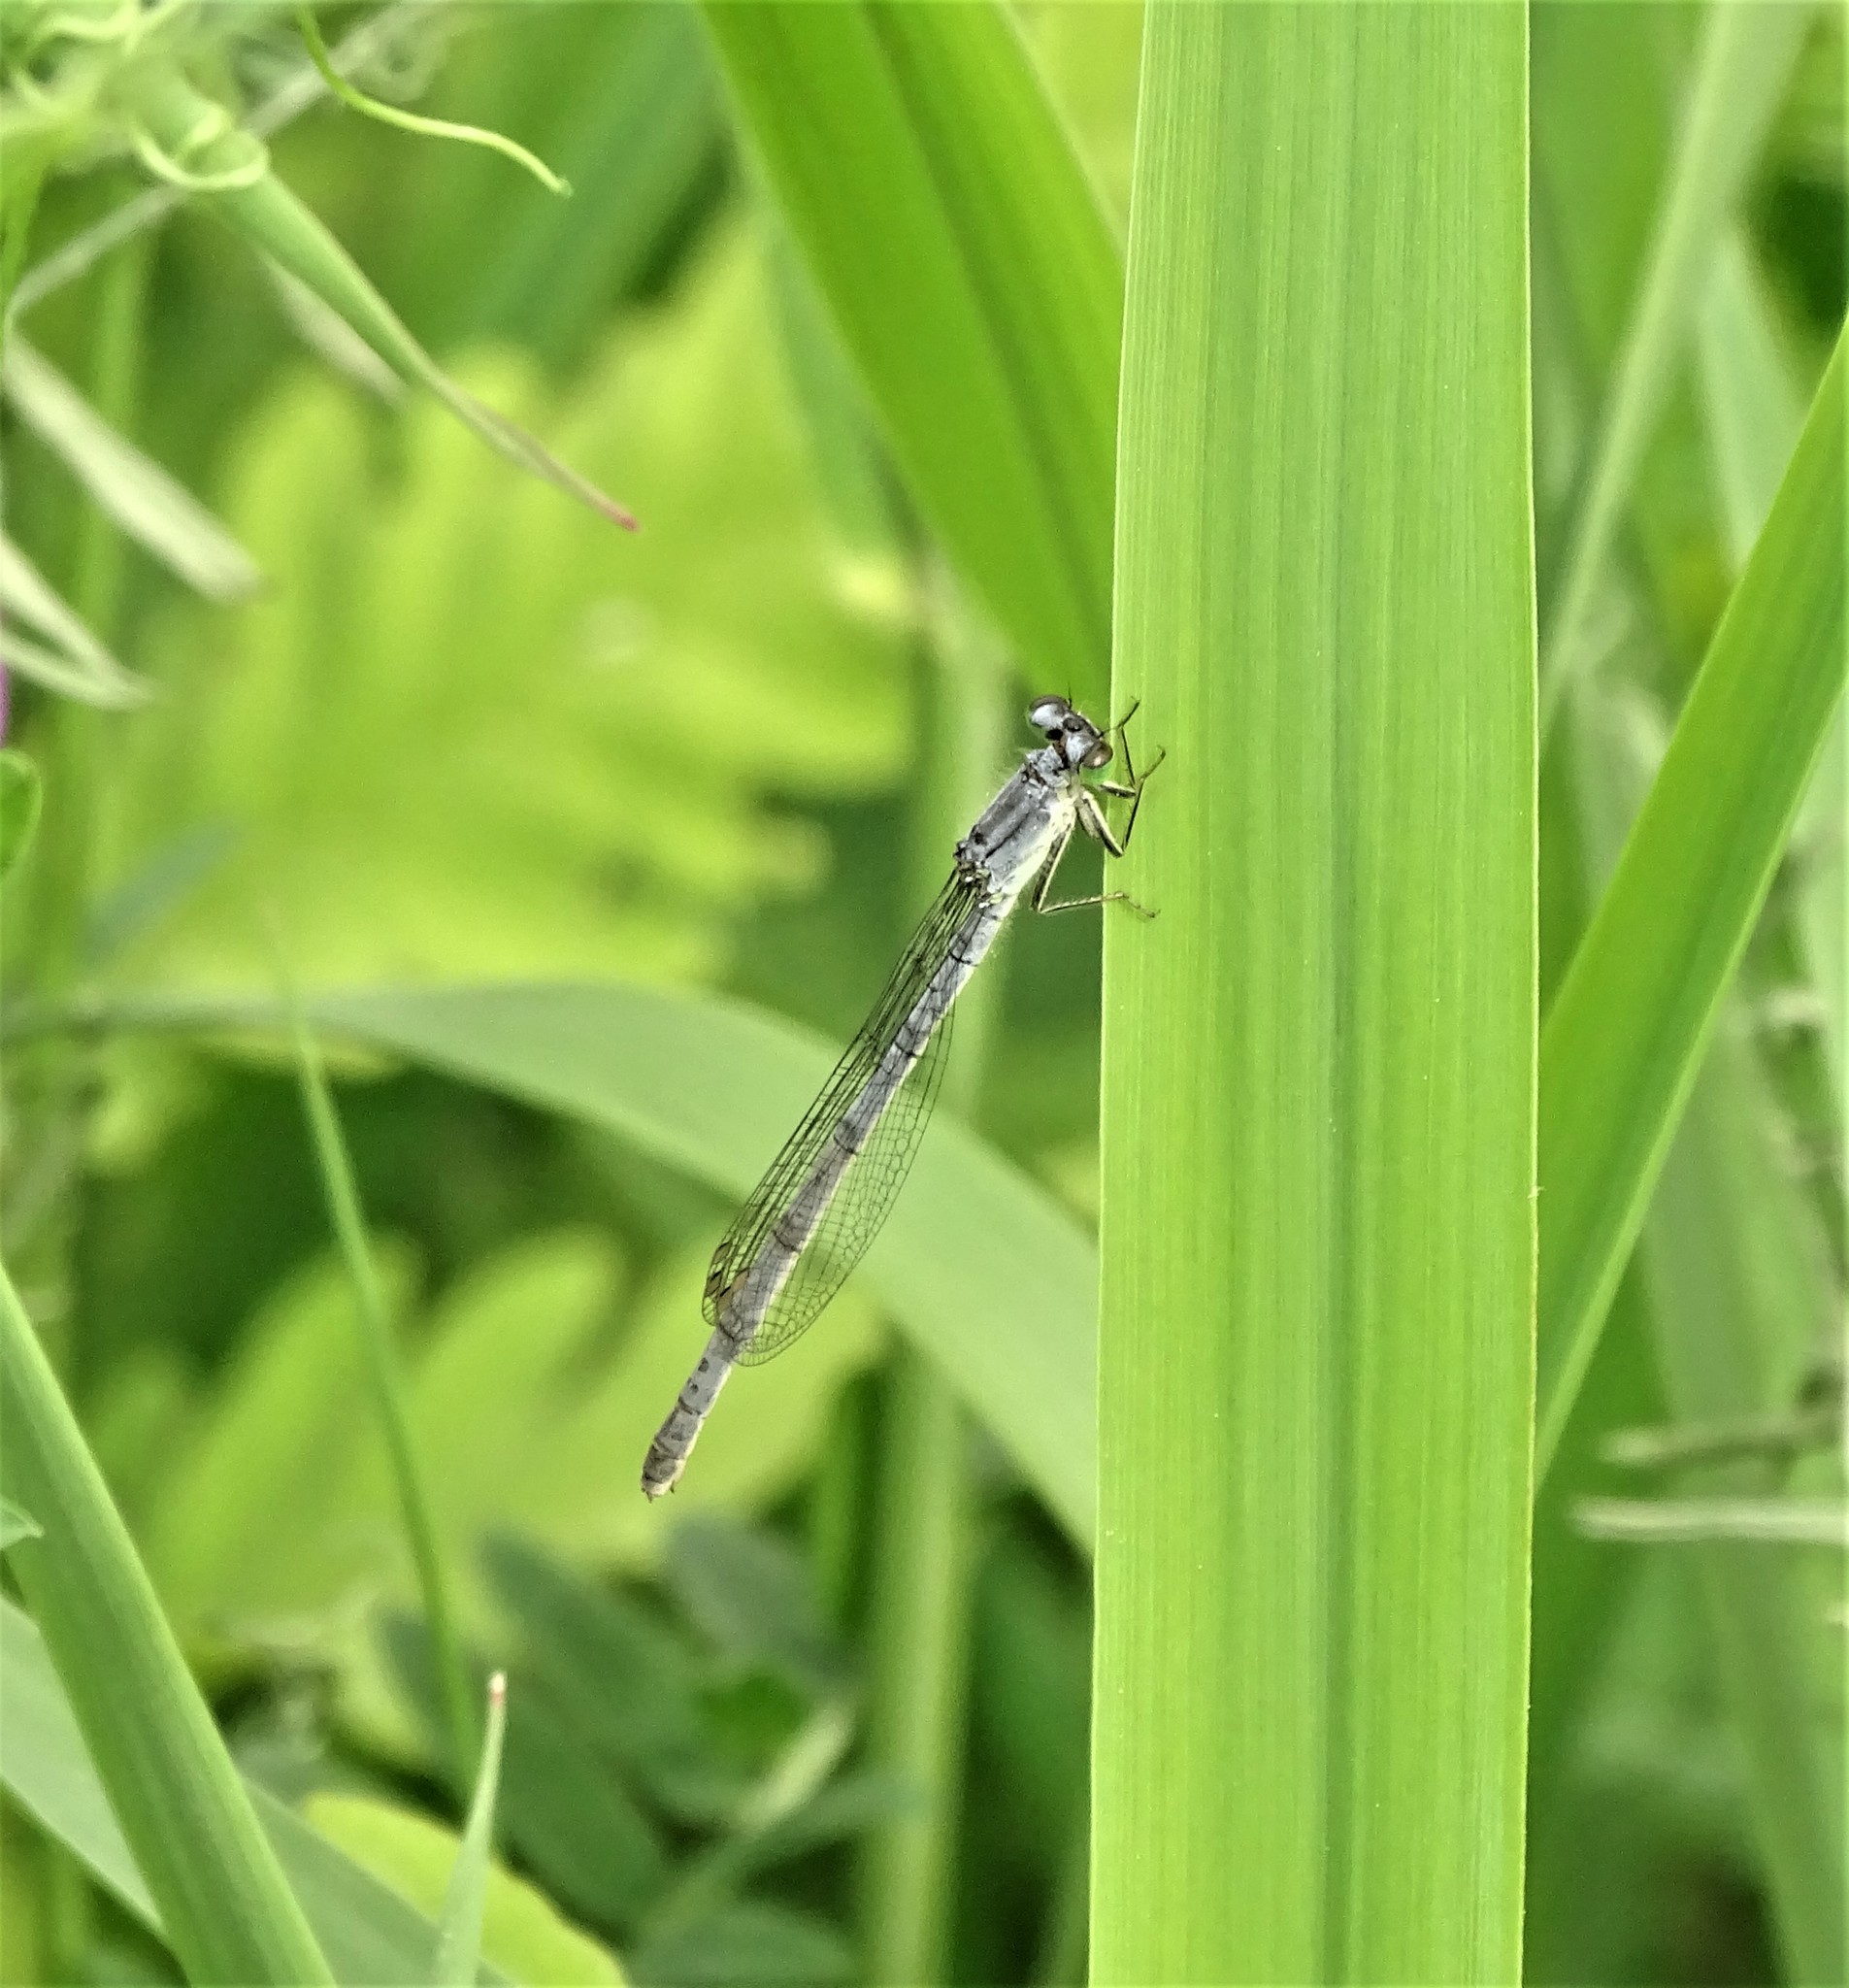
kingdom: Animalia
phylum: Arthropoda
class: Insecta
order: Odonata
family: Coenagrionidae
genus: Ischnura
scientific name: Ischnura verticalis
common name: Eastern forktail
